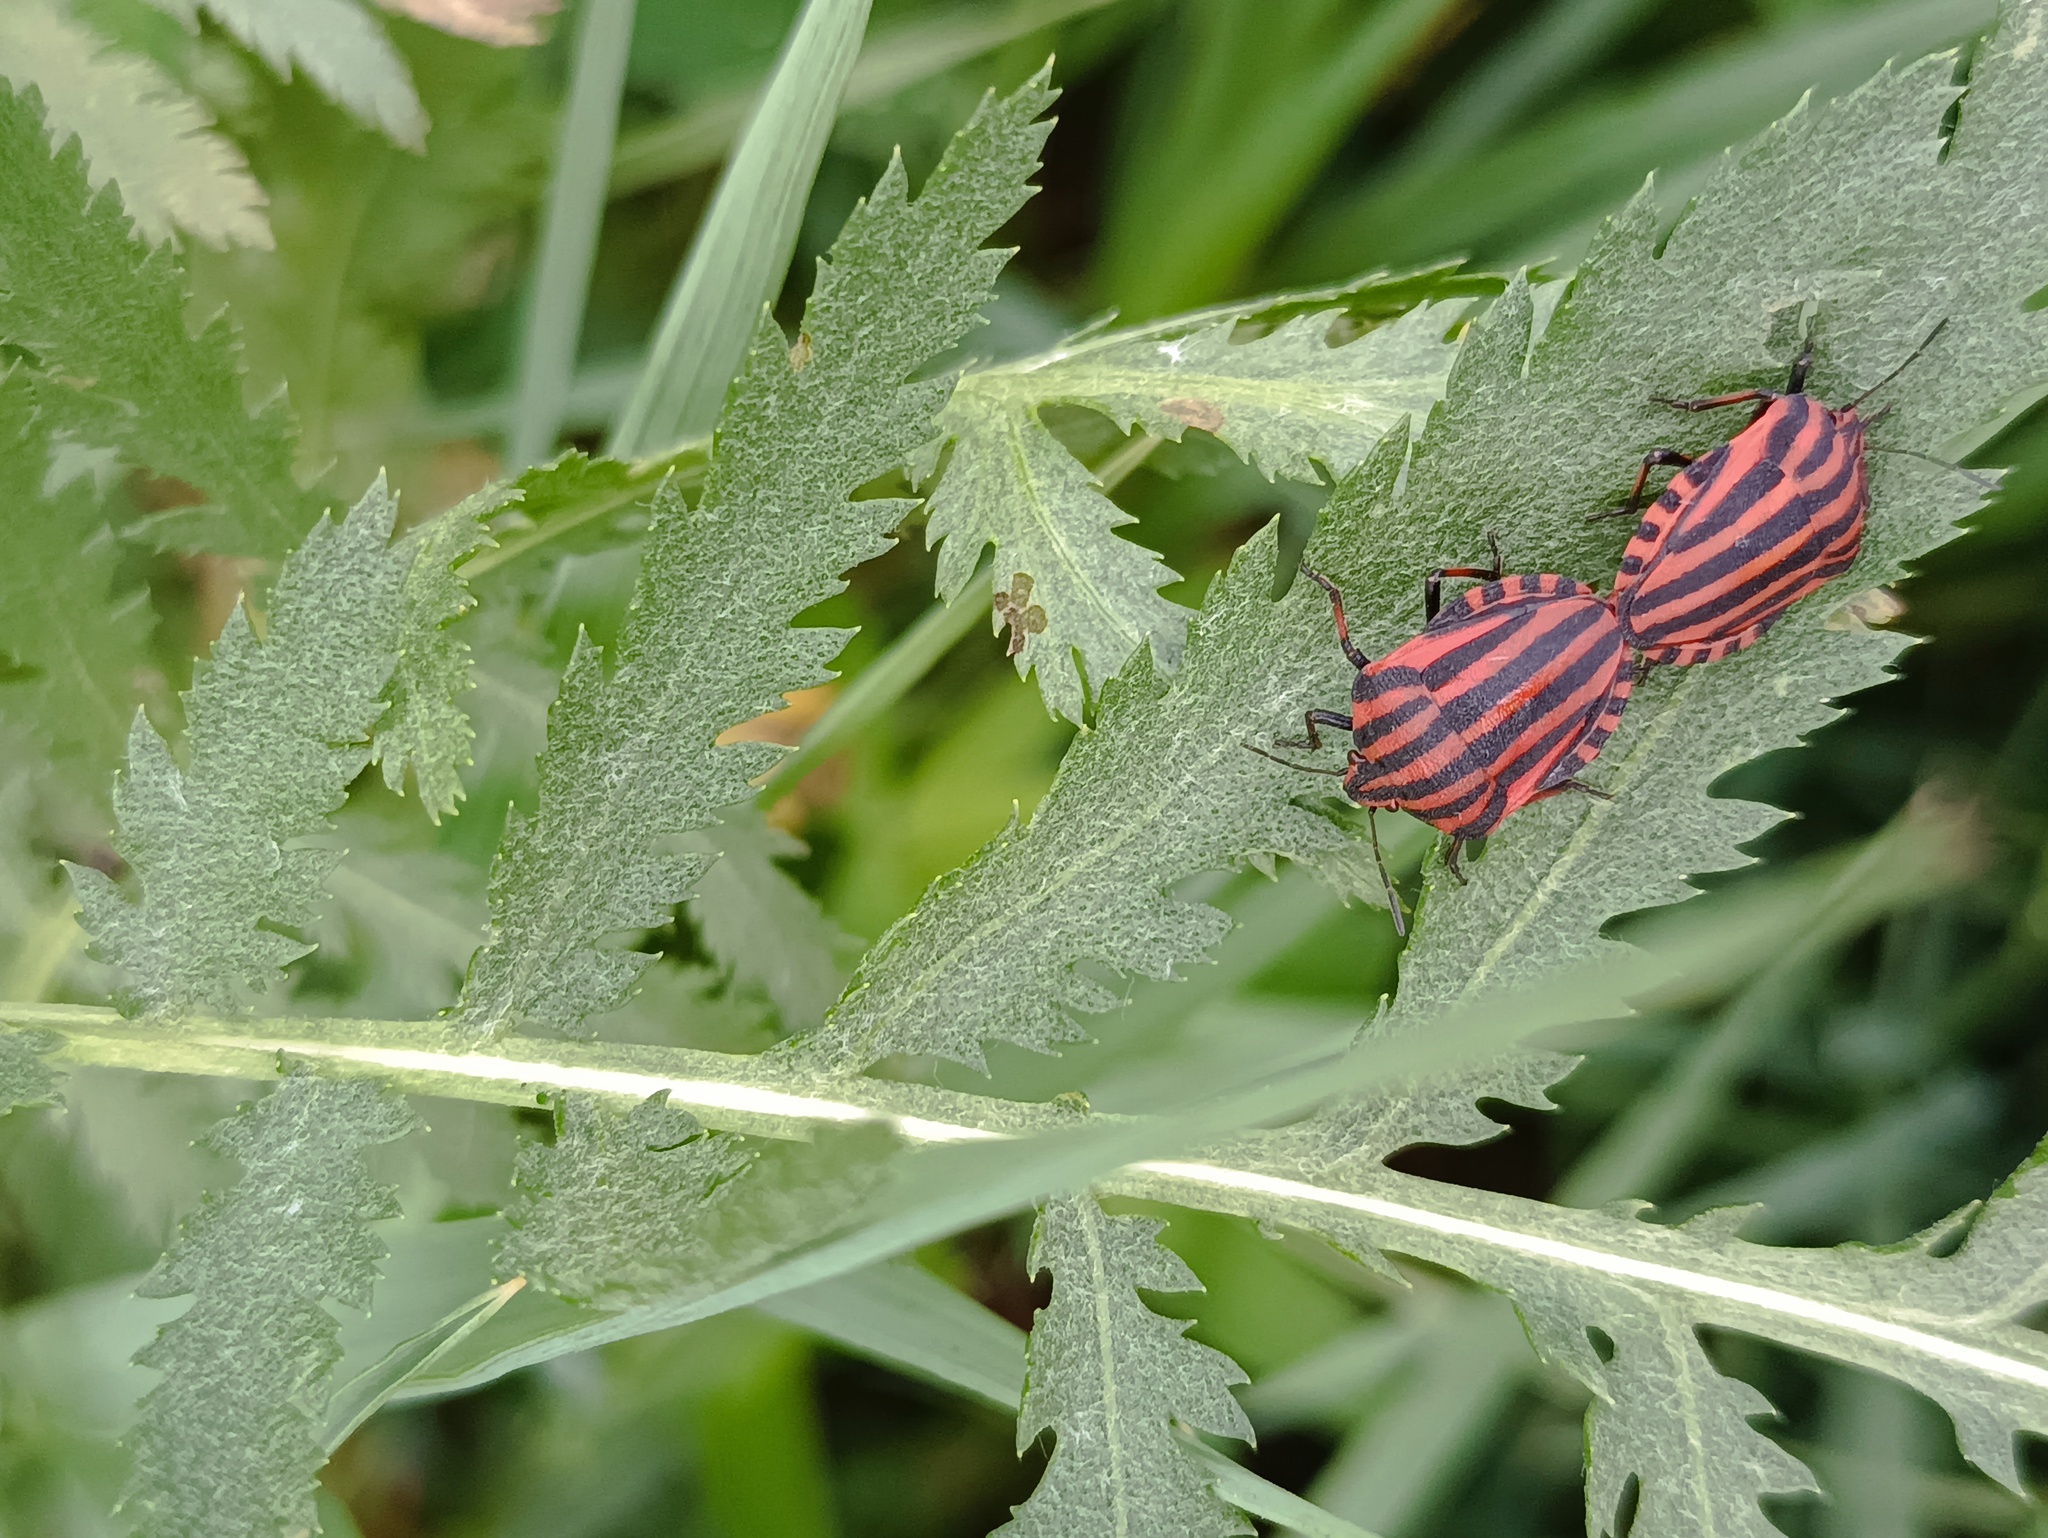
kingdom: Animalia
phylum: Arthropoda
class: Insecta
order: Hemiptera
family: Pentatomidae
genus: Graphosoma
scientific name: Graphosoma italicum
